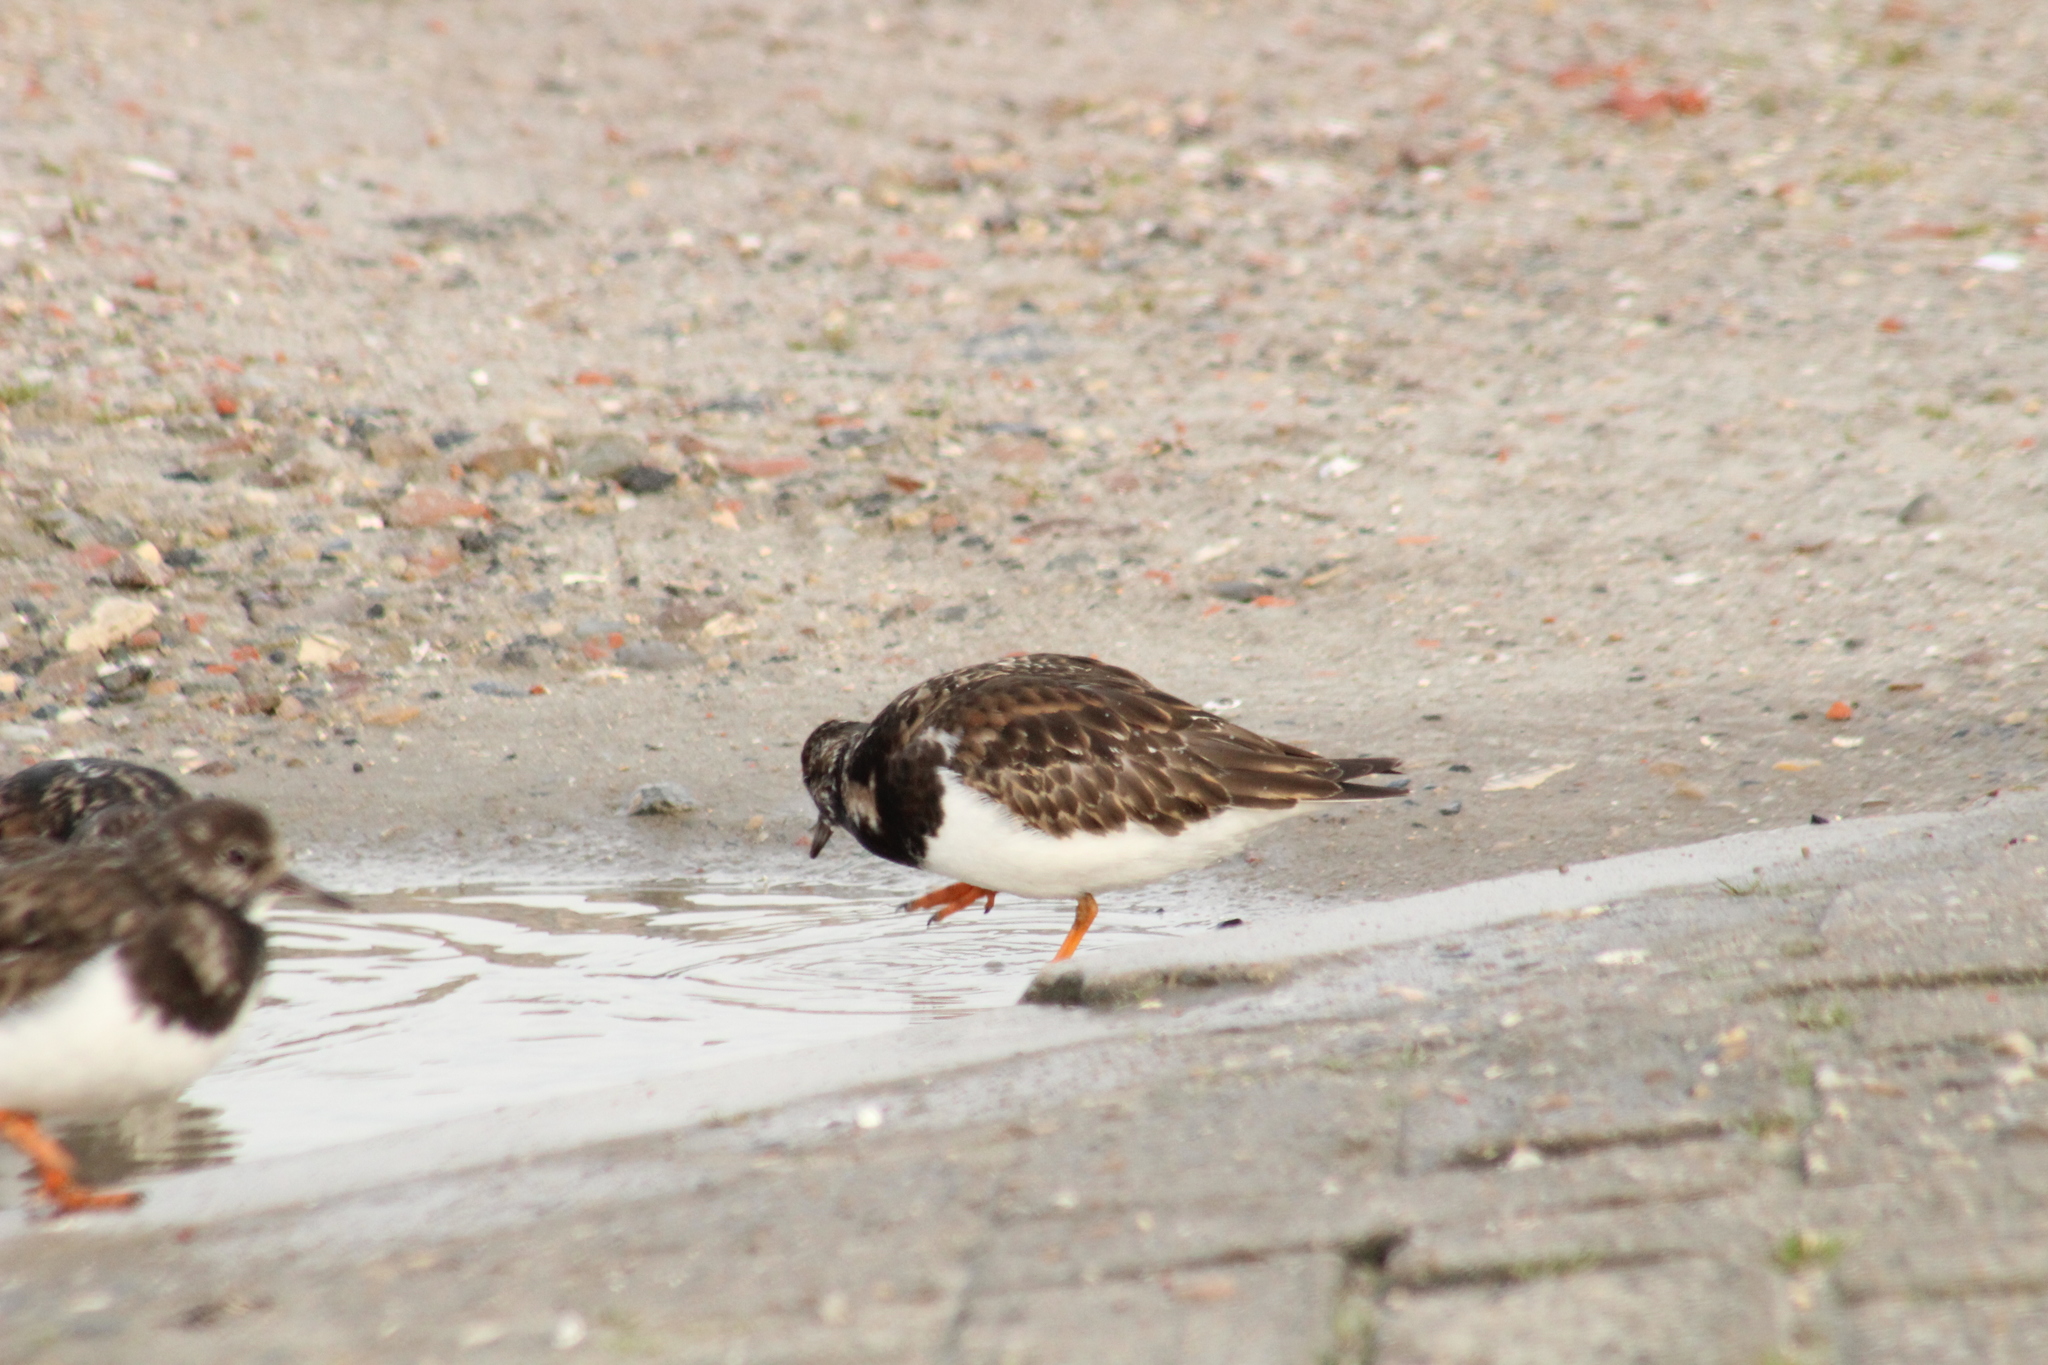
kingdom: Animalia
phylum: Chordata
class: Aves
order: Charadriiformes
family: Scolopacidae
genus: Arenaria
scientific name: Arenaria interpres
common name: Ruddy turnstone
